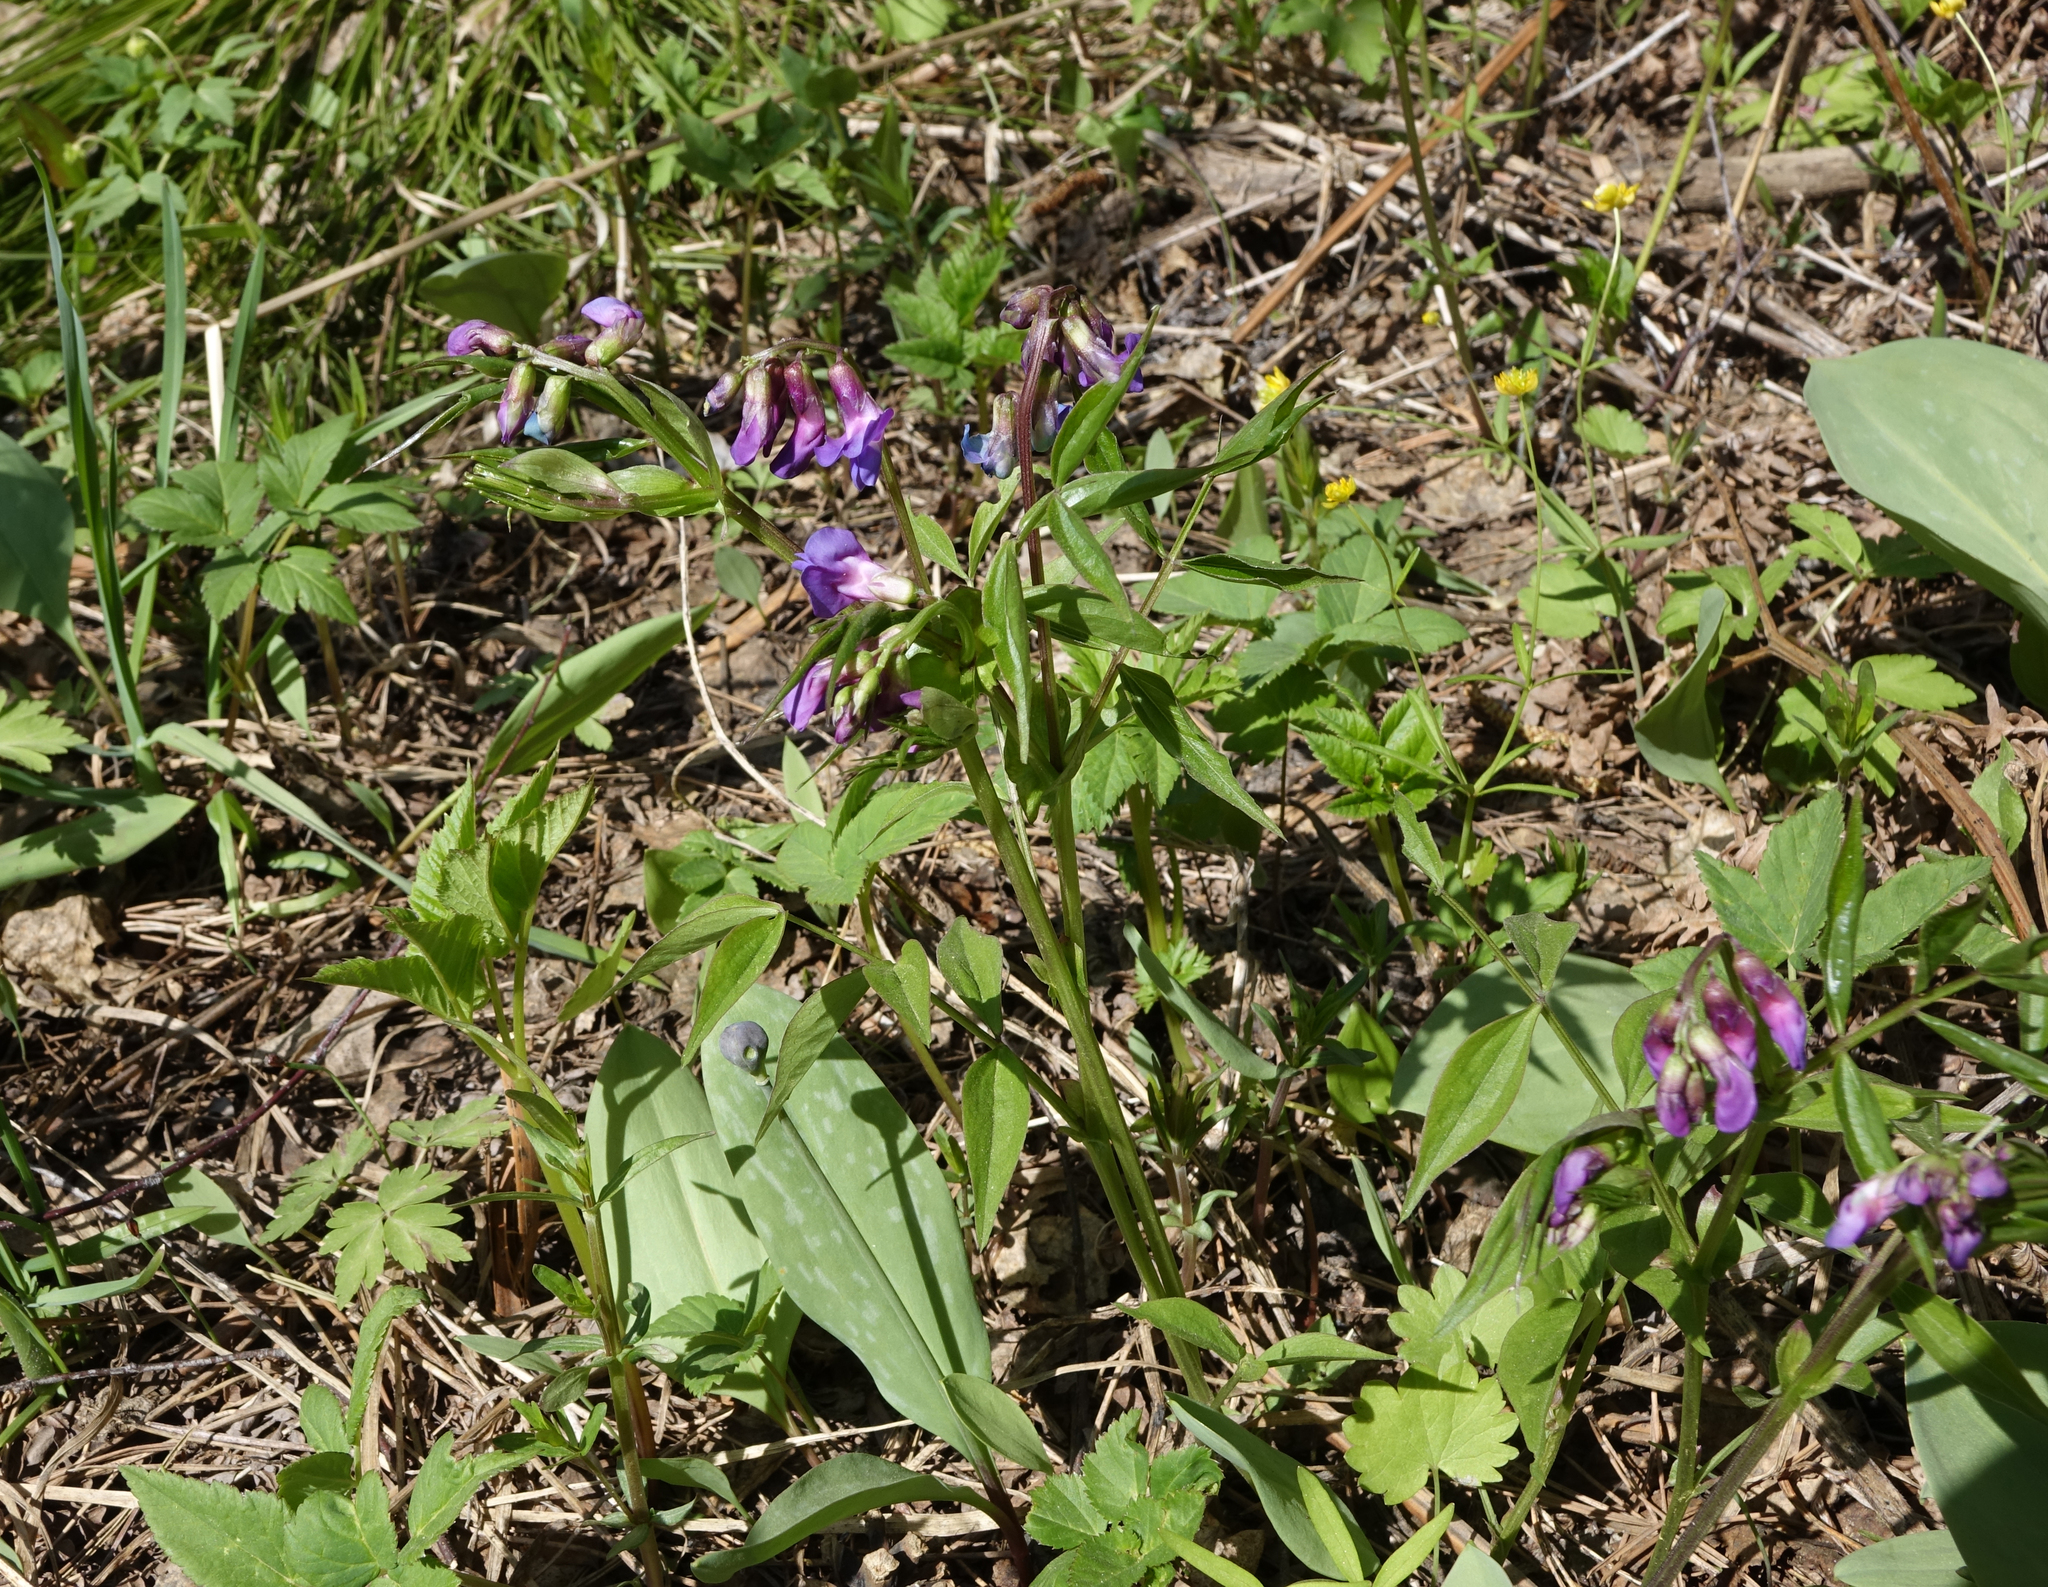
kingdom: Plantae
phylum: Tracheophyta
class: Magnoliopsida
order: Fabales
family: Fabaceae
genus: Lathyrus
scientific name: Lathyrus vernus
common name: Spring pea
